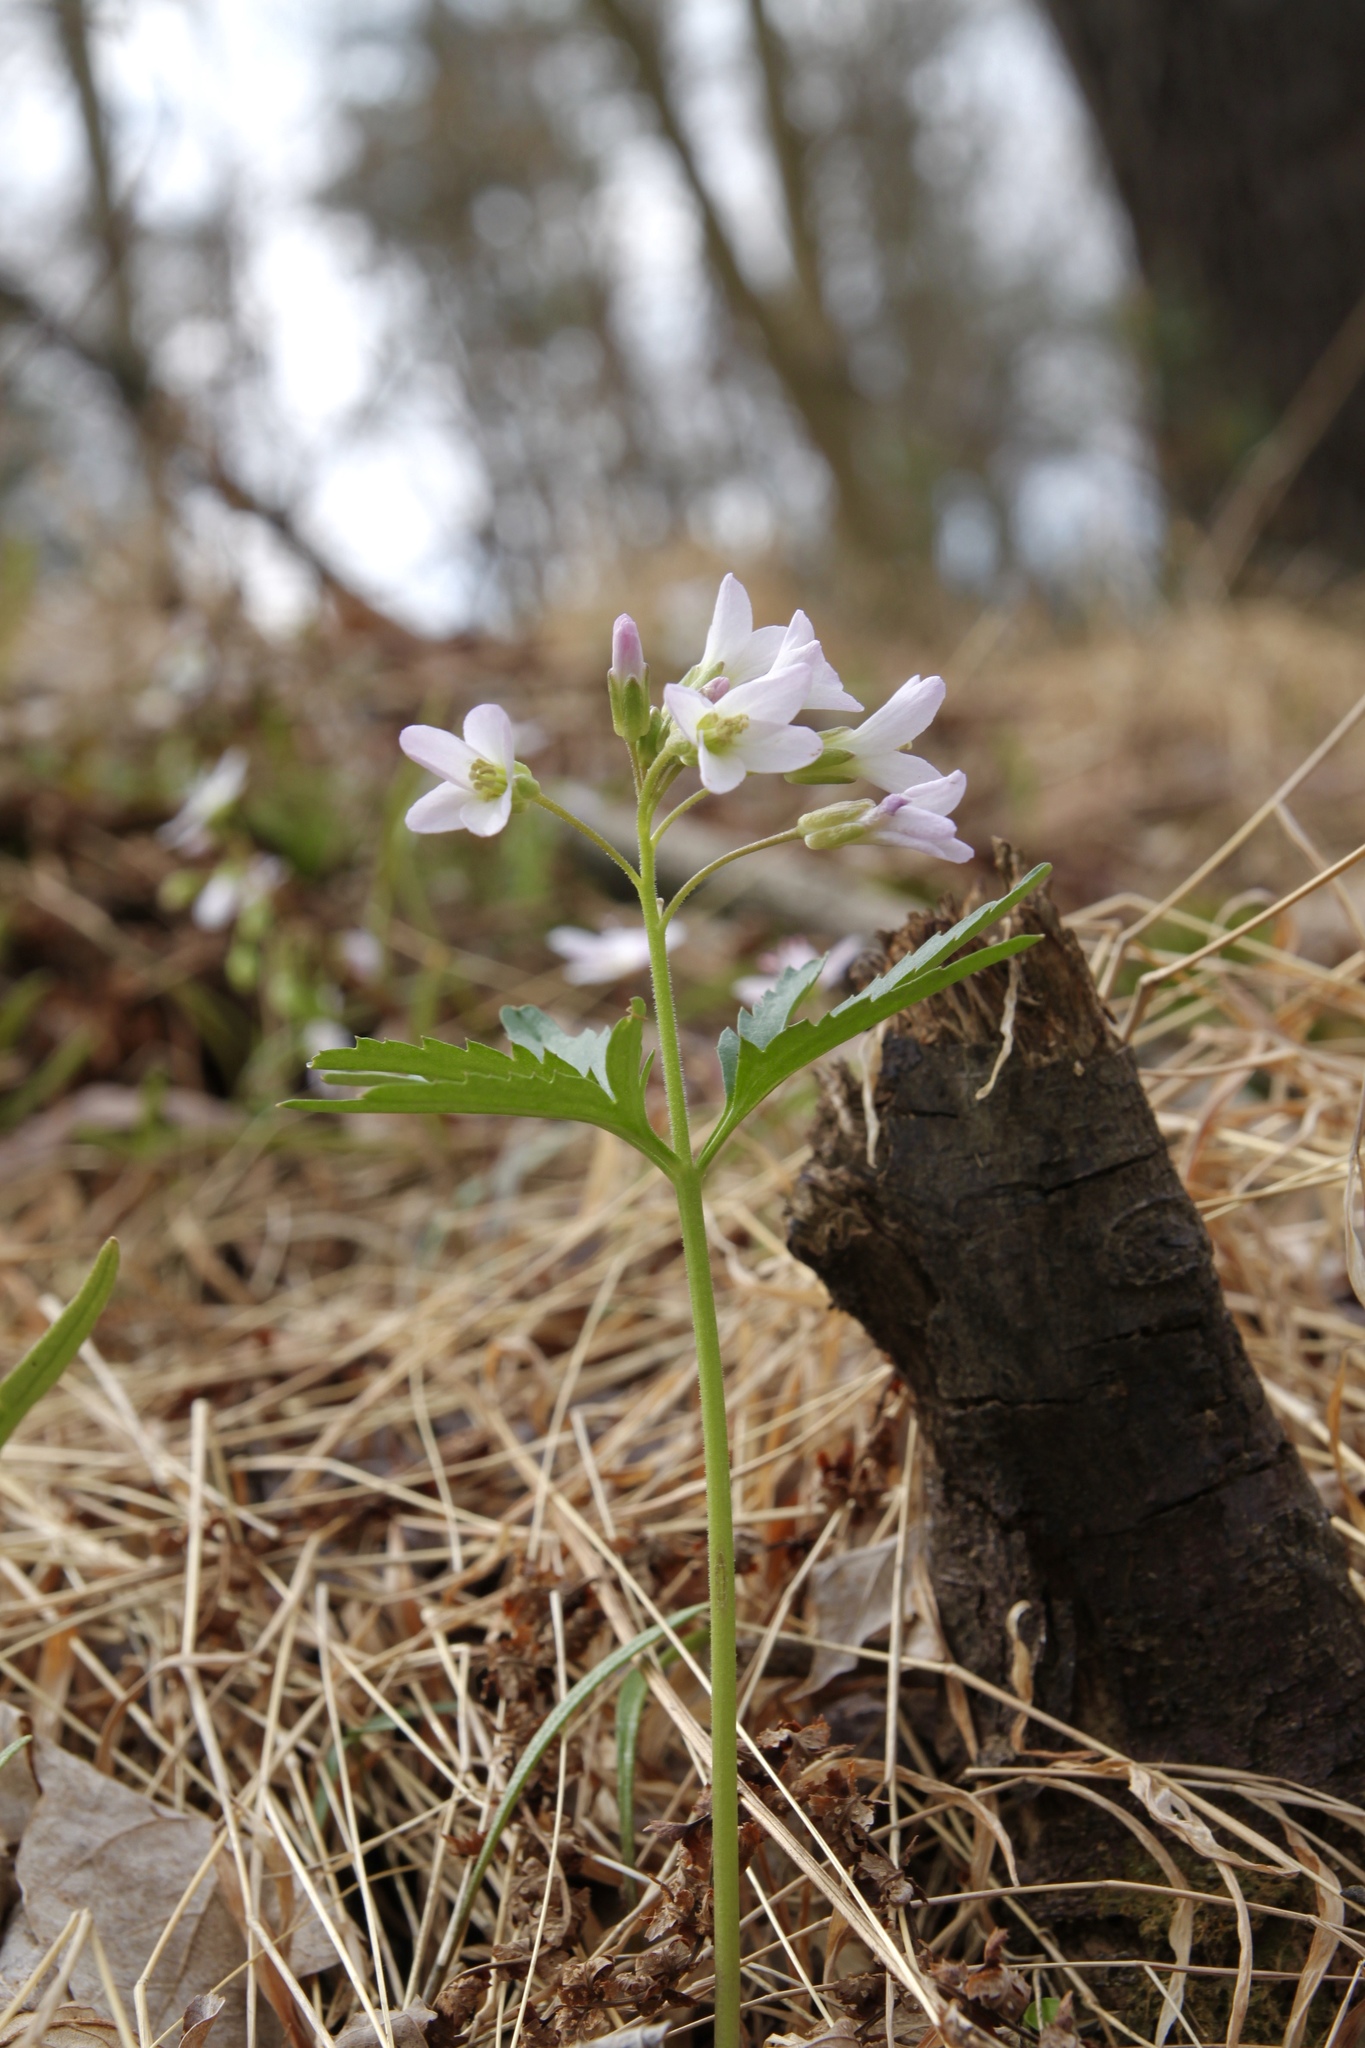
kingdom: Plantae
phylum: Tracheophyta
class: Magnoliopsida
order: Brassicales
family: Brassicaceae
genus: Cardamine
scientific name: Cardamine concatenata
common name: Cut-leaf toothcup
